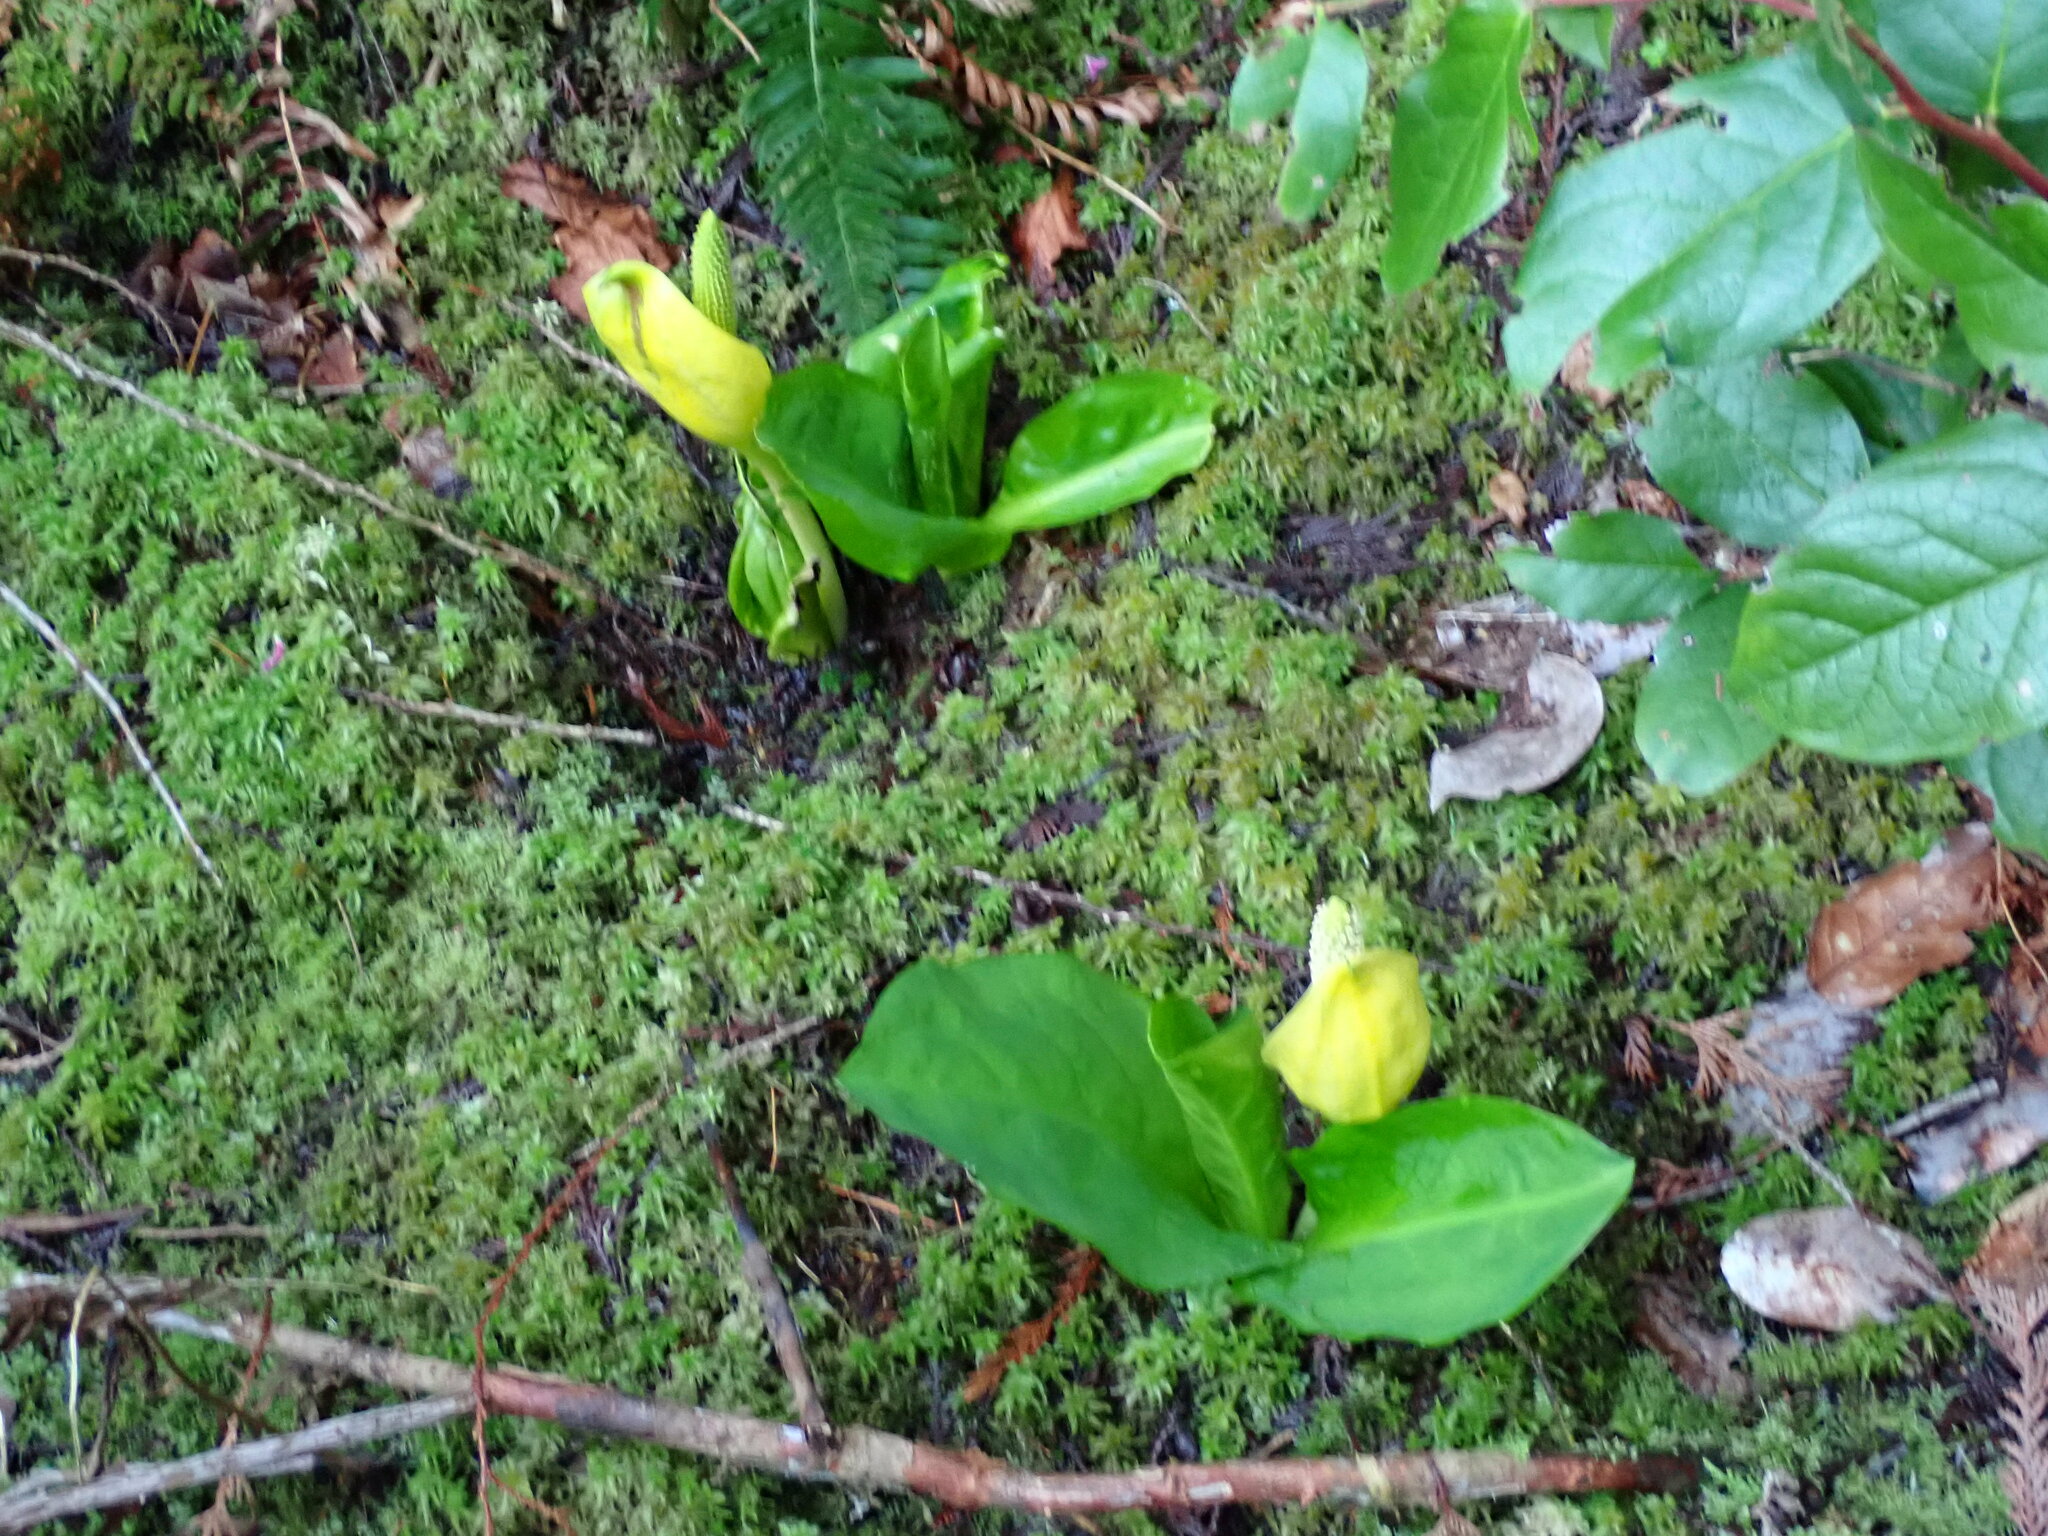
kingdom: Plantae
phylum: Tracheophyta
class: Liliopsida
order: Alismatales
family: Araceae
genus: Lysichiton
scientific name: Lysichiton americanus
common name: American skunk cabbage
